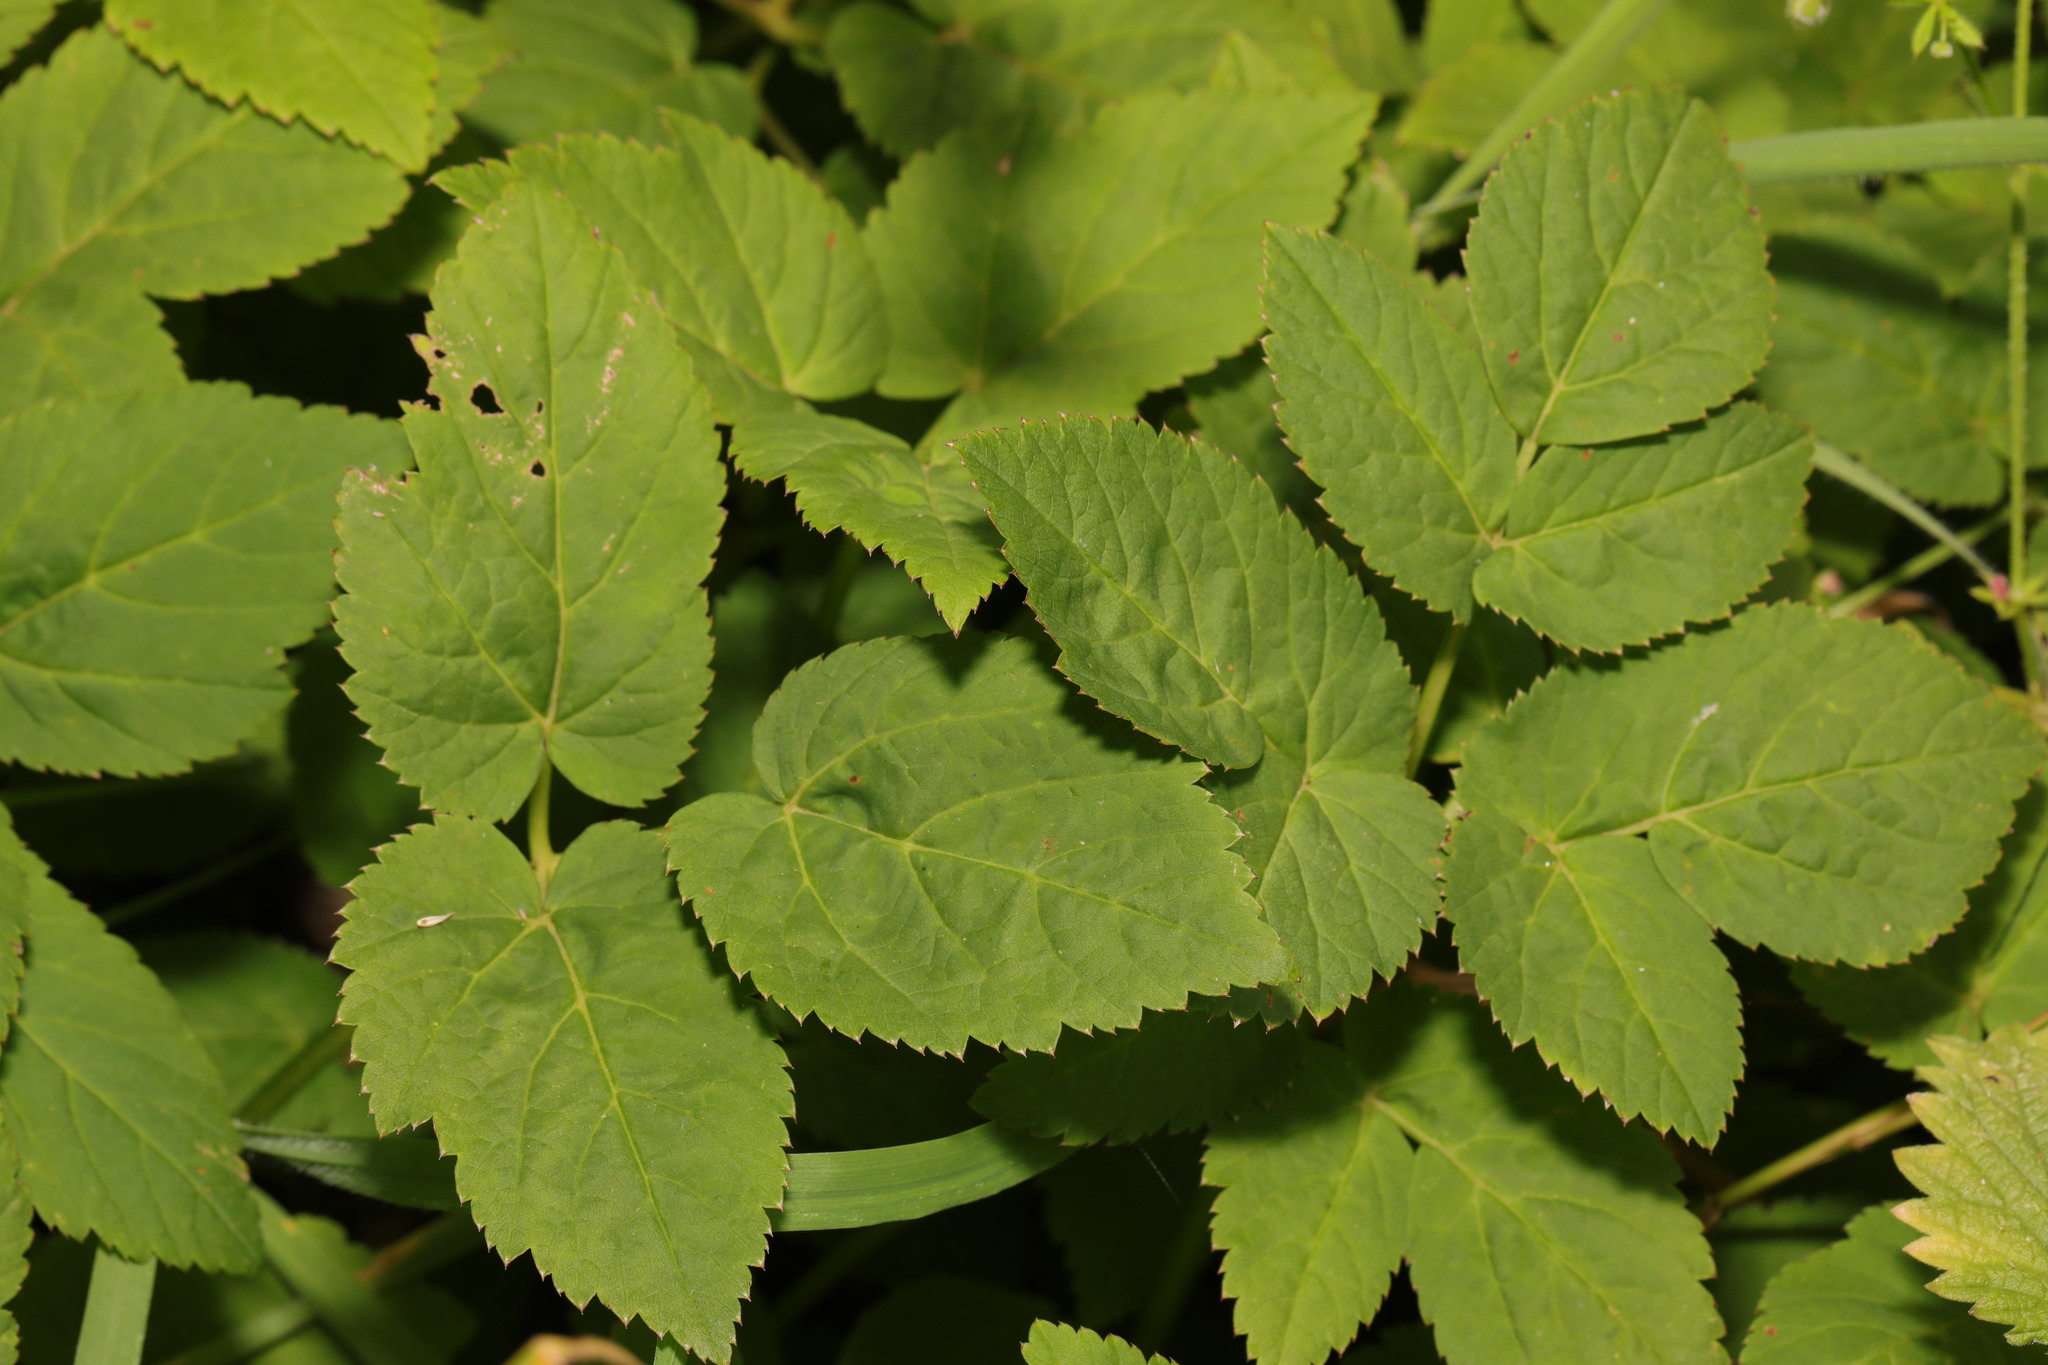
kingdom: Plantae
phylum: Tracheophyta
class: Magnoliopsida
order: Apiales
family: Apiaceae
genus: Aegopodium
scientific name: Aegopodium podagraria
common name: Ground-elder
